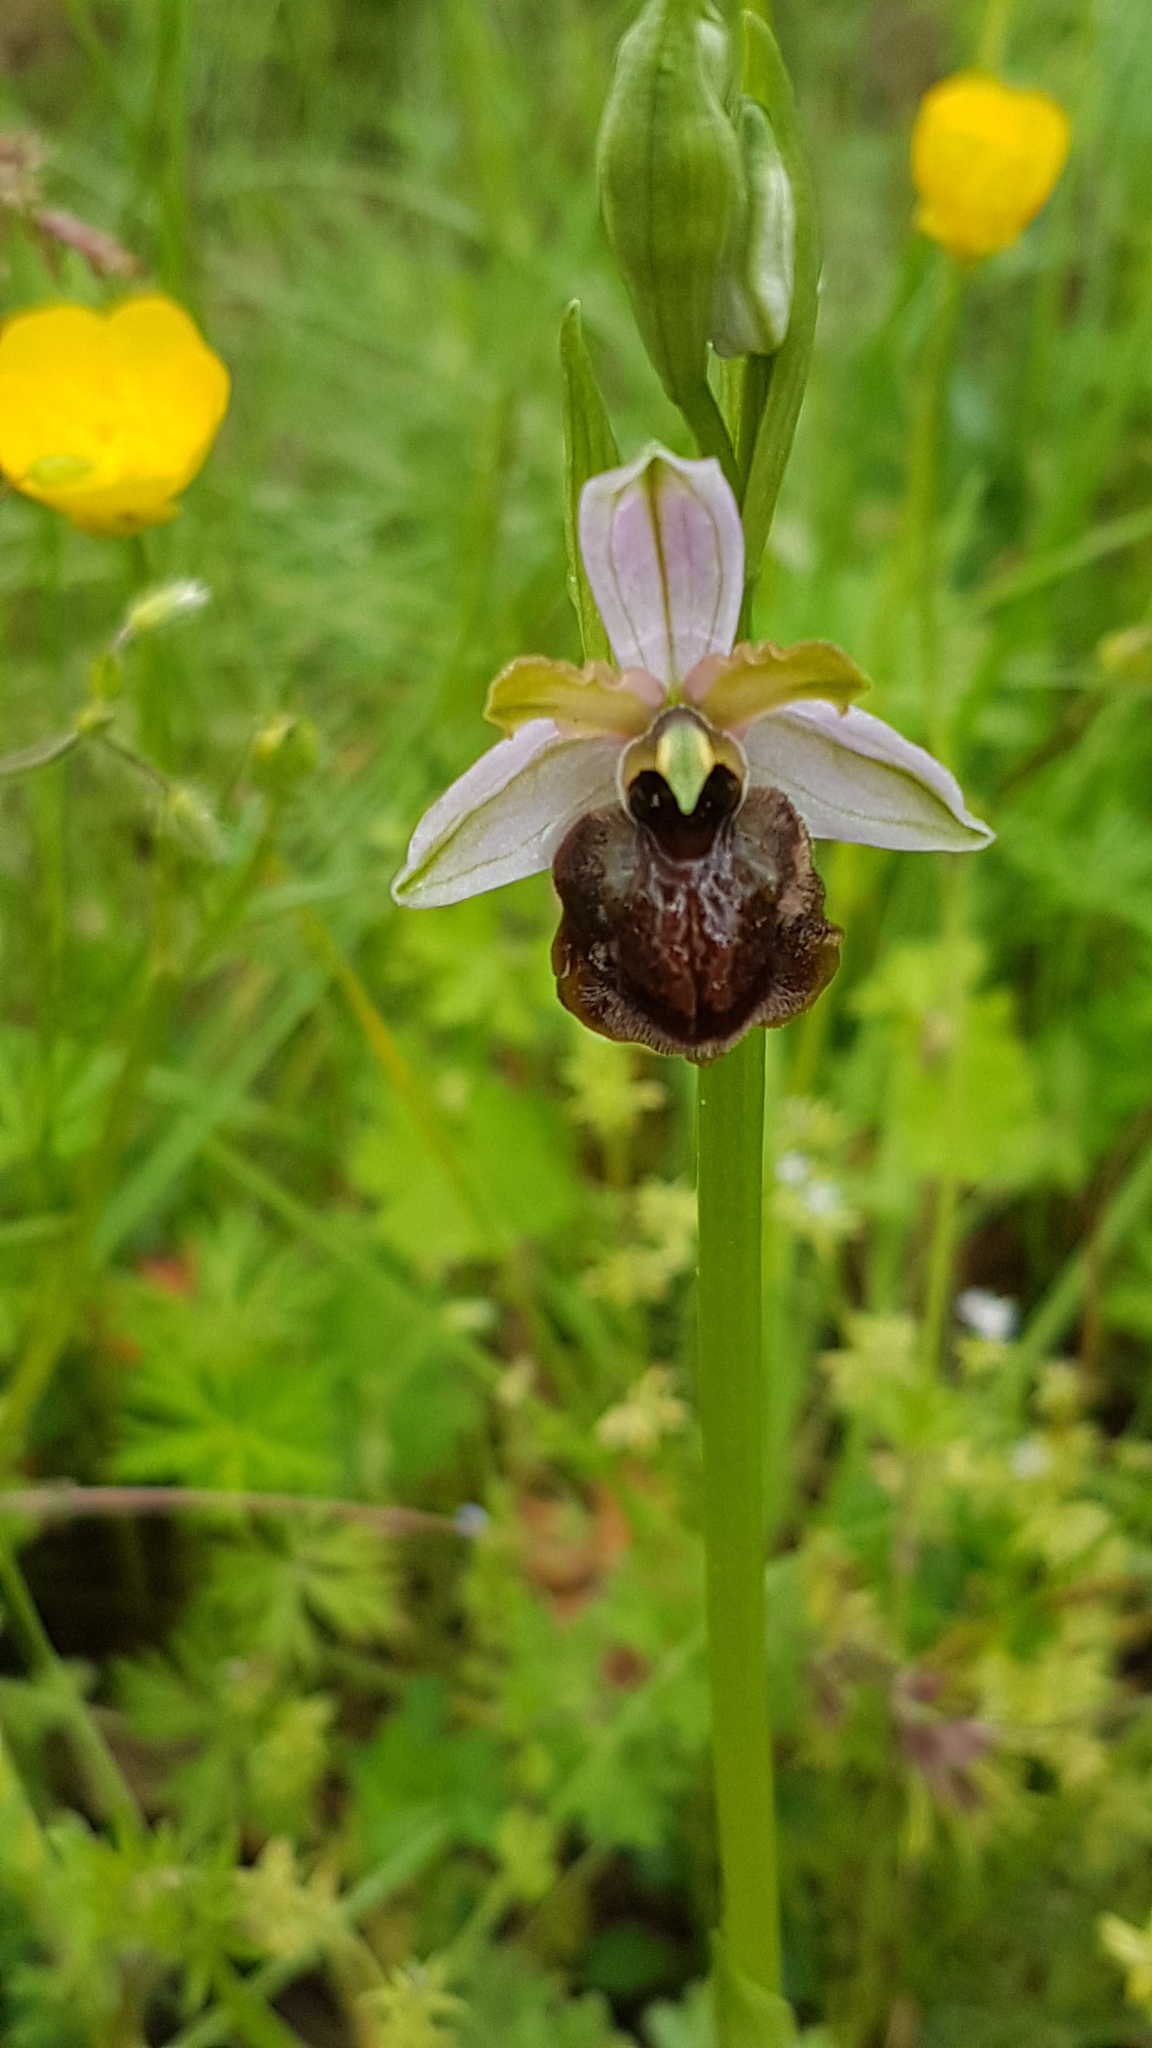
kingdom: Plantae
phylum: Tracheophyta
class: Liliopsida
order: Asparagales
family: Orchidaceae
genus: Ophrys
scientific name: Ophrys sphegodes
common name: Early spider-orchid
